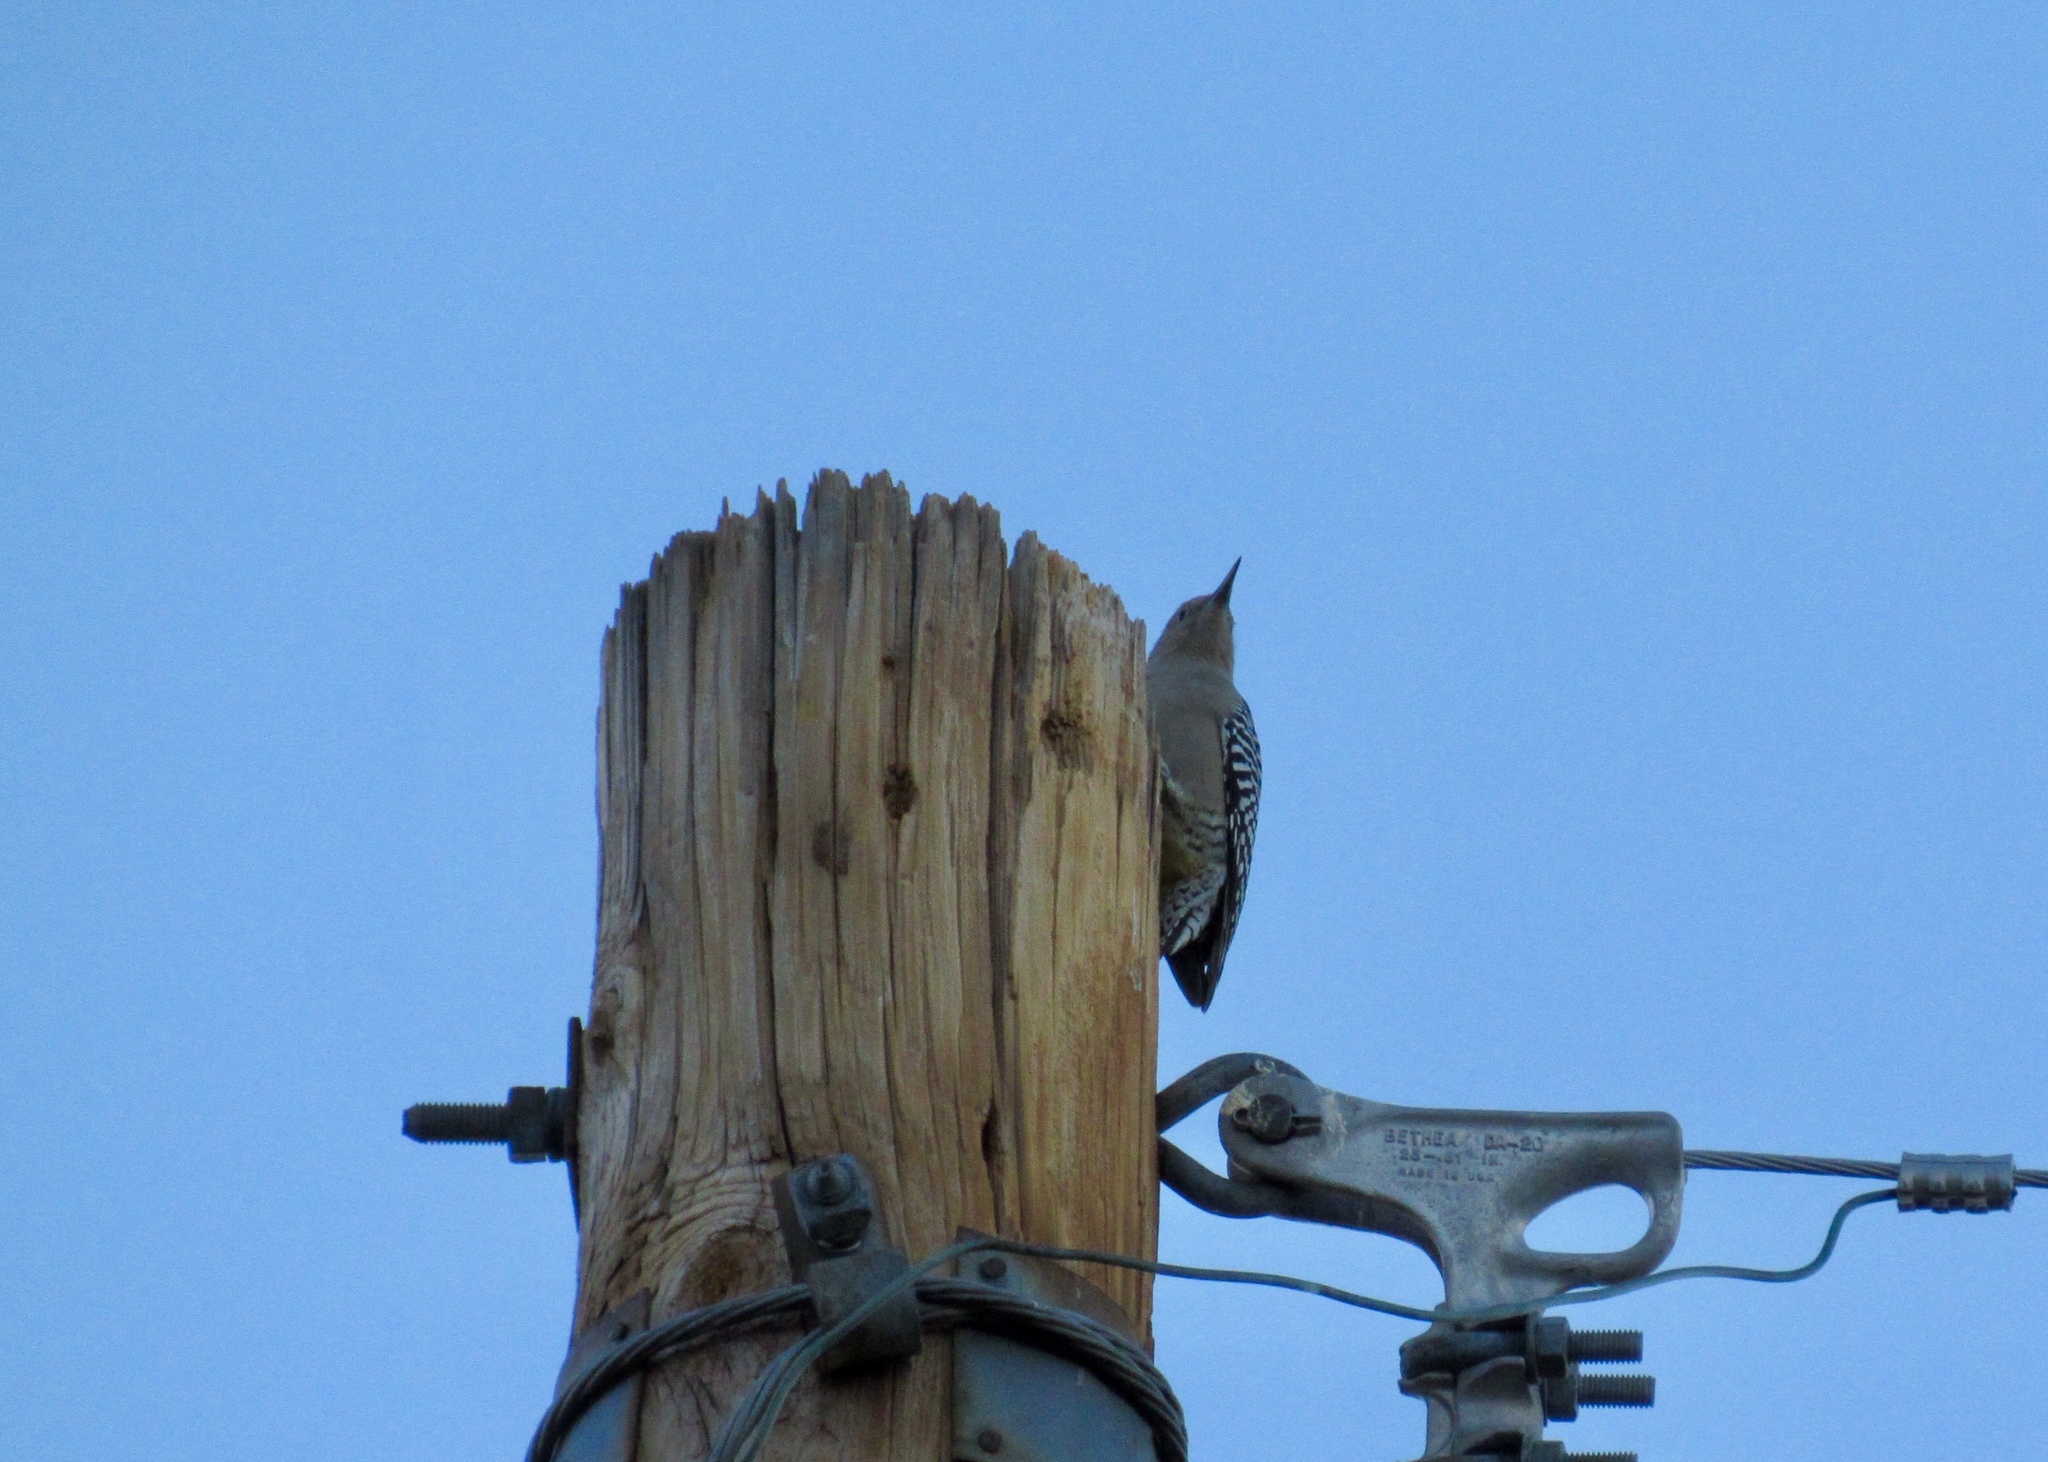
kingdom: Animalia
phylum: Chordata
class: Aves
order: Piciformes
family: Picidae
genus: Melanerpes
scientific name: Melanerpes uropygialis
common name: Gila woodpecker
